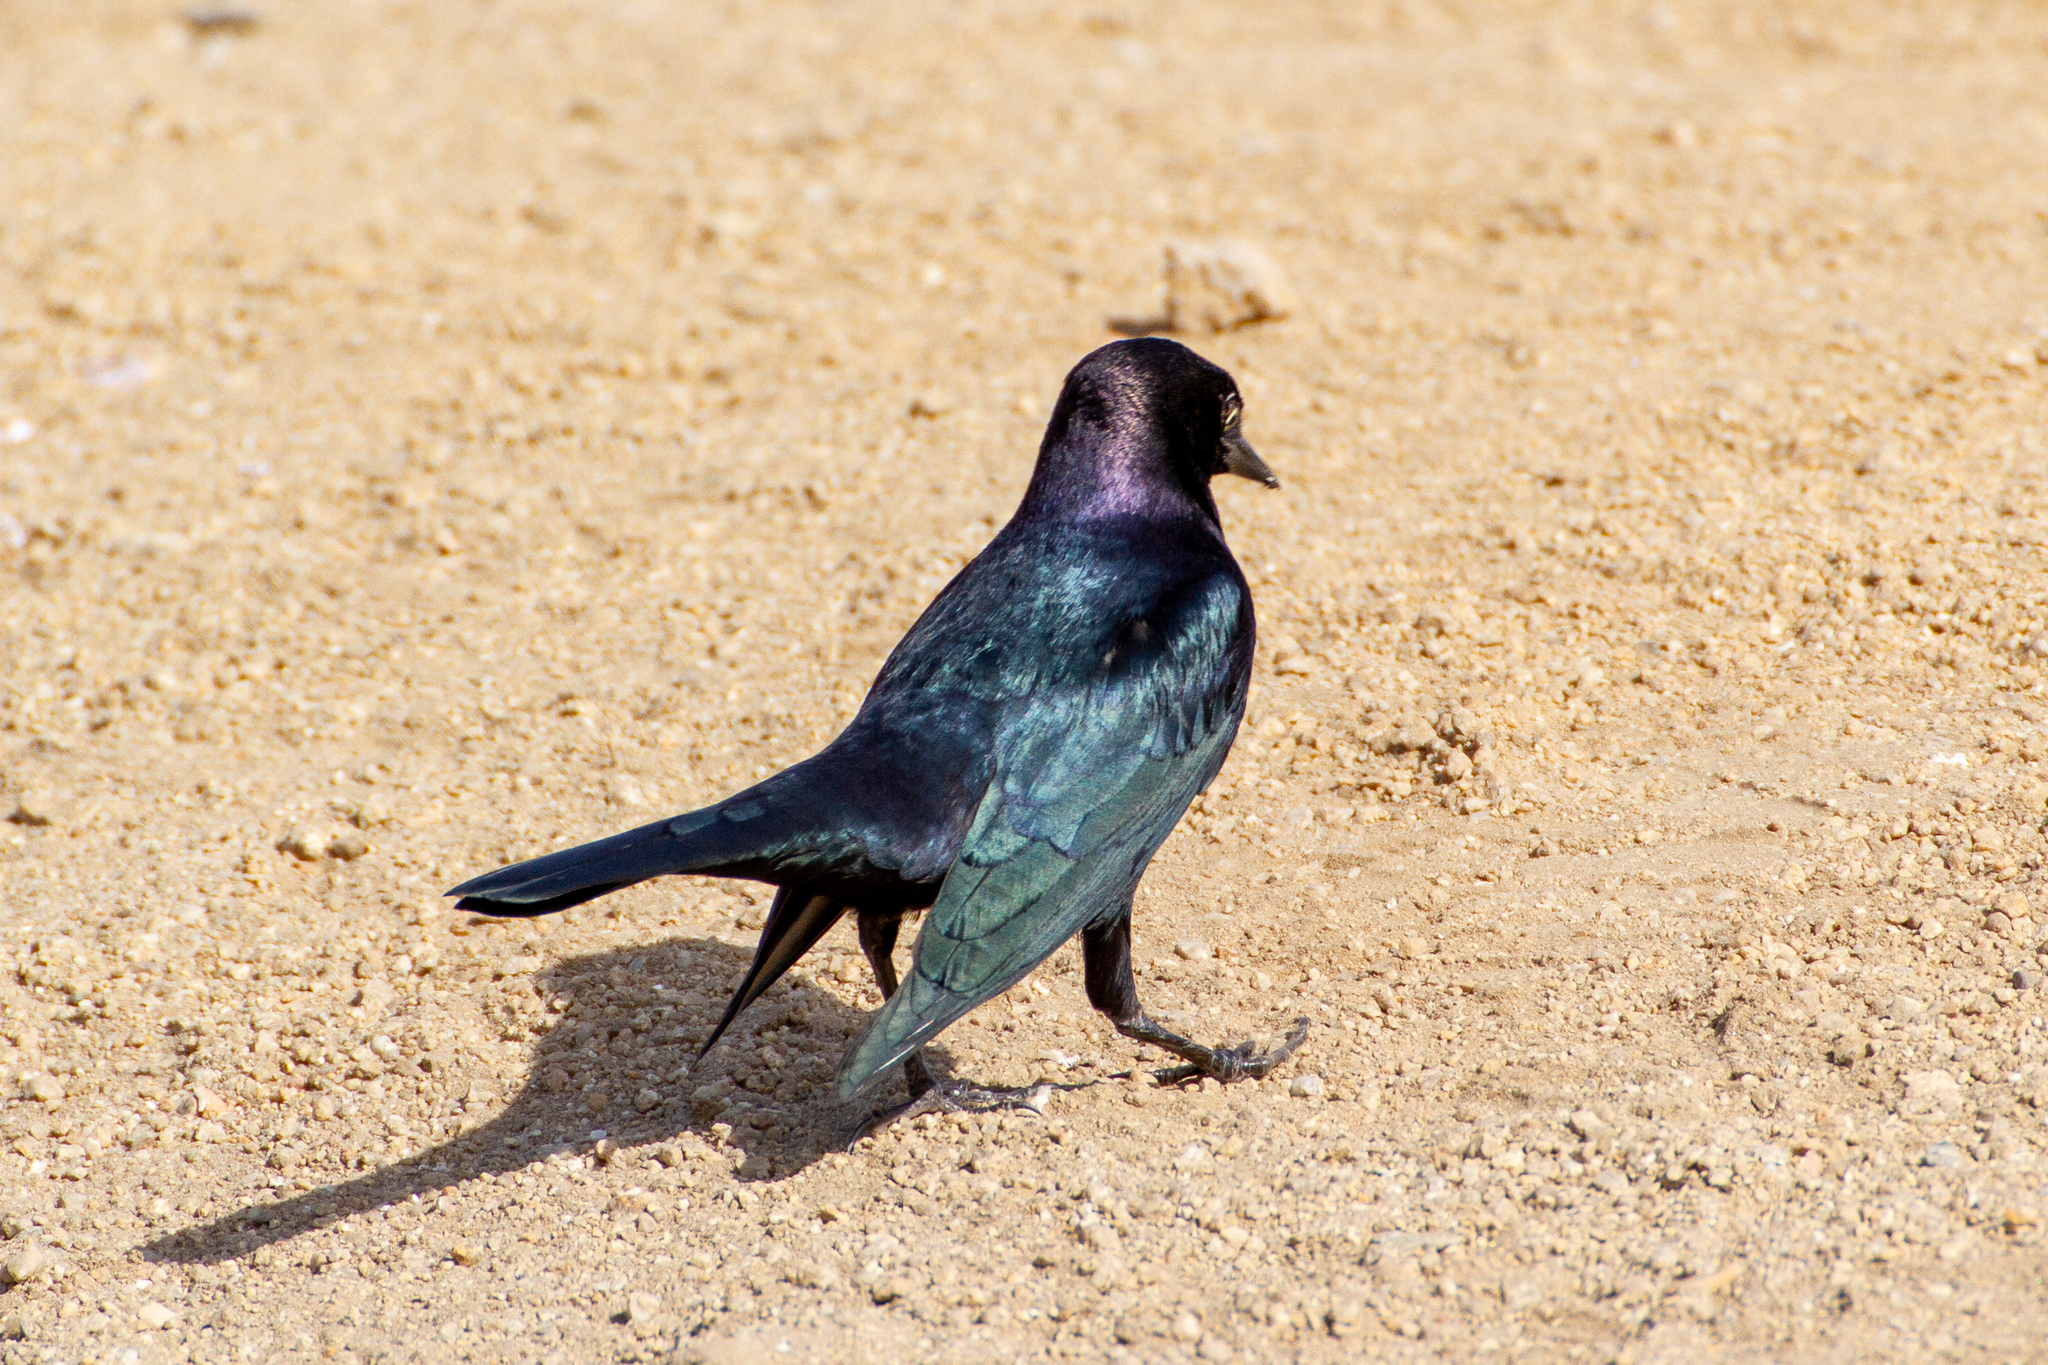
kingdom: Animalia
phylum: Chordata
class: Aves
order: Passeriformes
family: Icteridae
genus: Euphagus
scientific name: Euphagus cyanocephalus
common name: Brewer's blackbird
